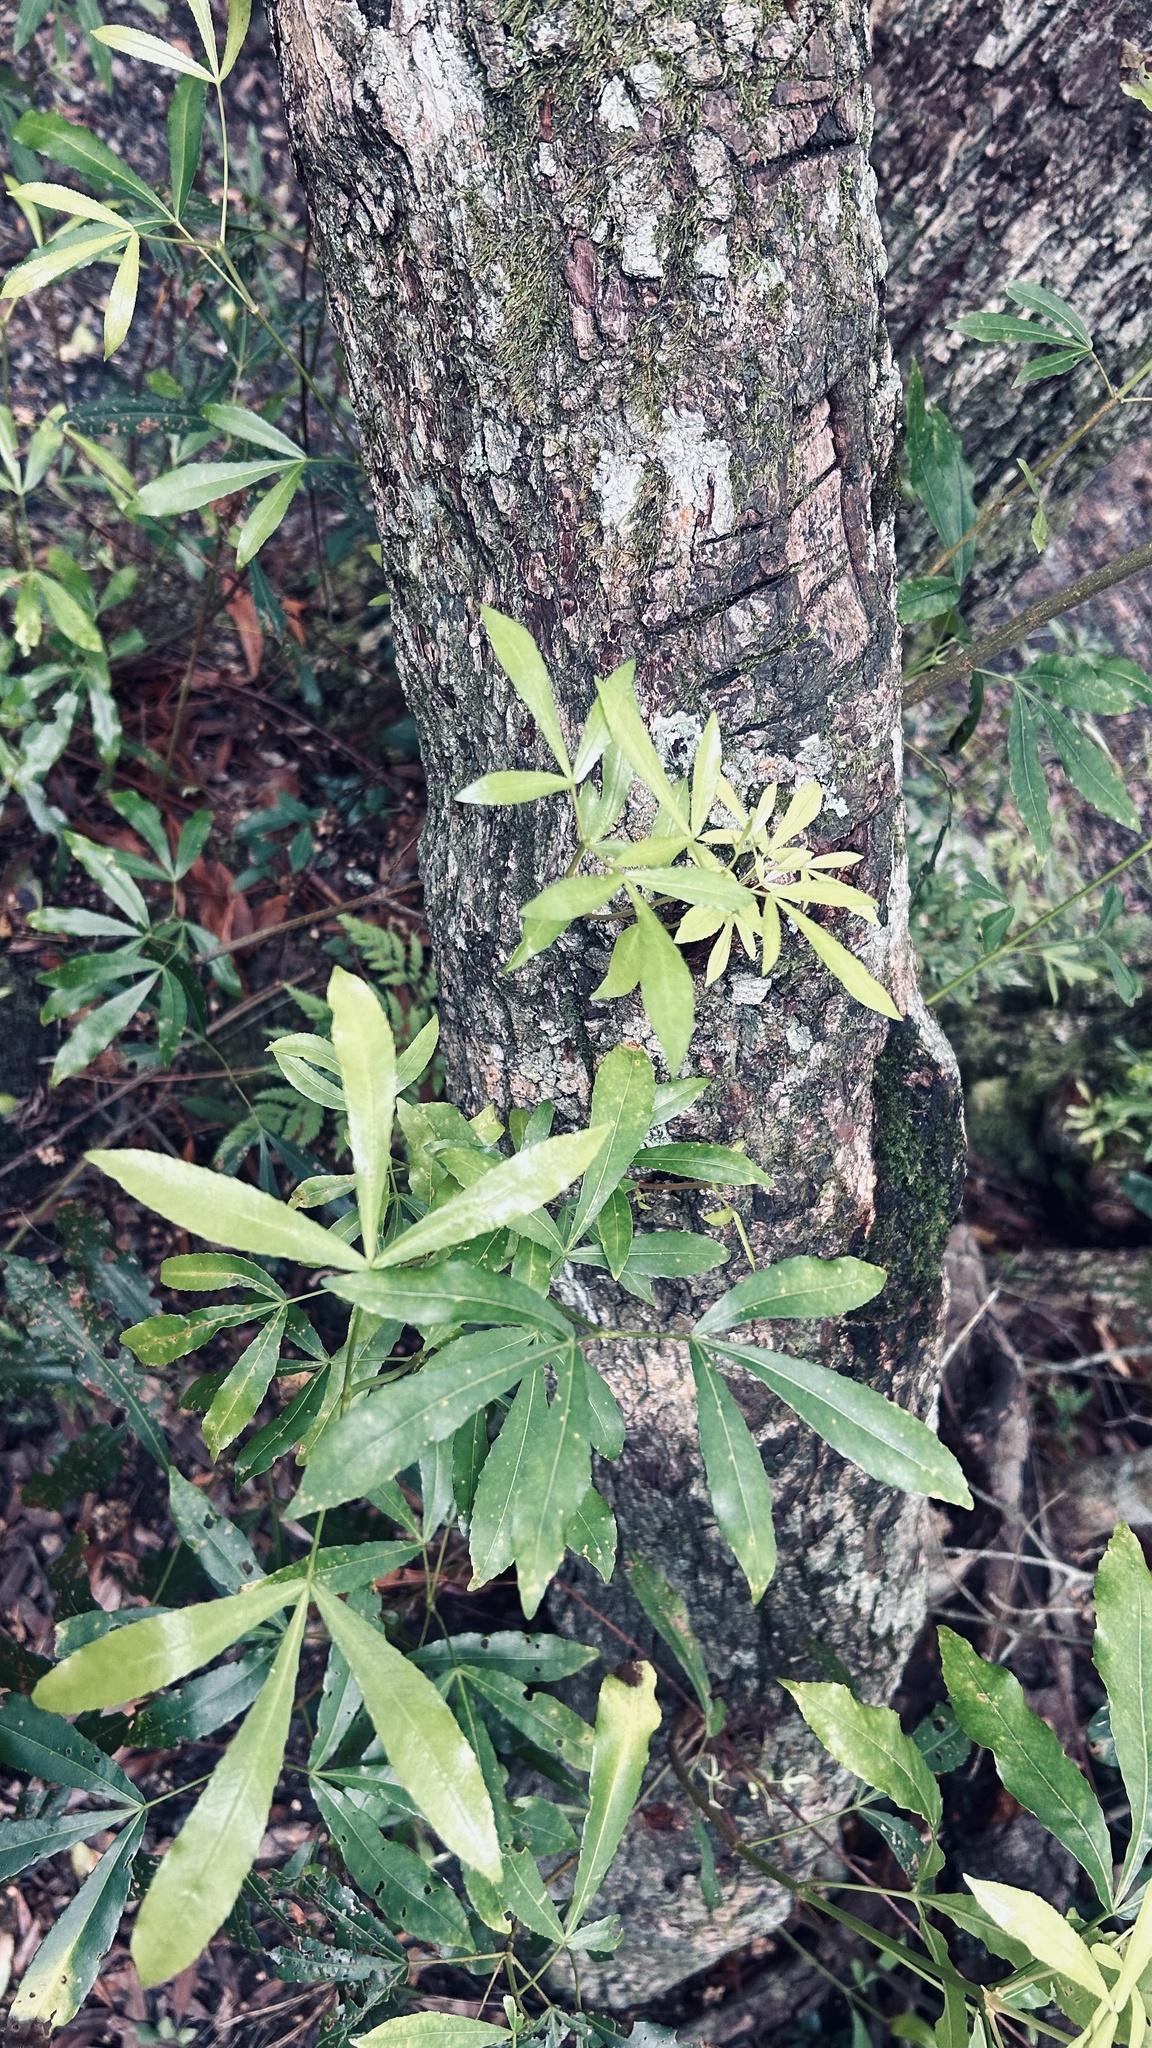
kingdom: Plantae
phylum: Tracheophyta
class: Magnoliopsida
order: Oxalidales
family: Cunoniaceae
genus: Platylophus
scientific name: Platylophus trifoliatus
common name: White alder
